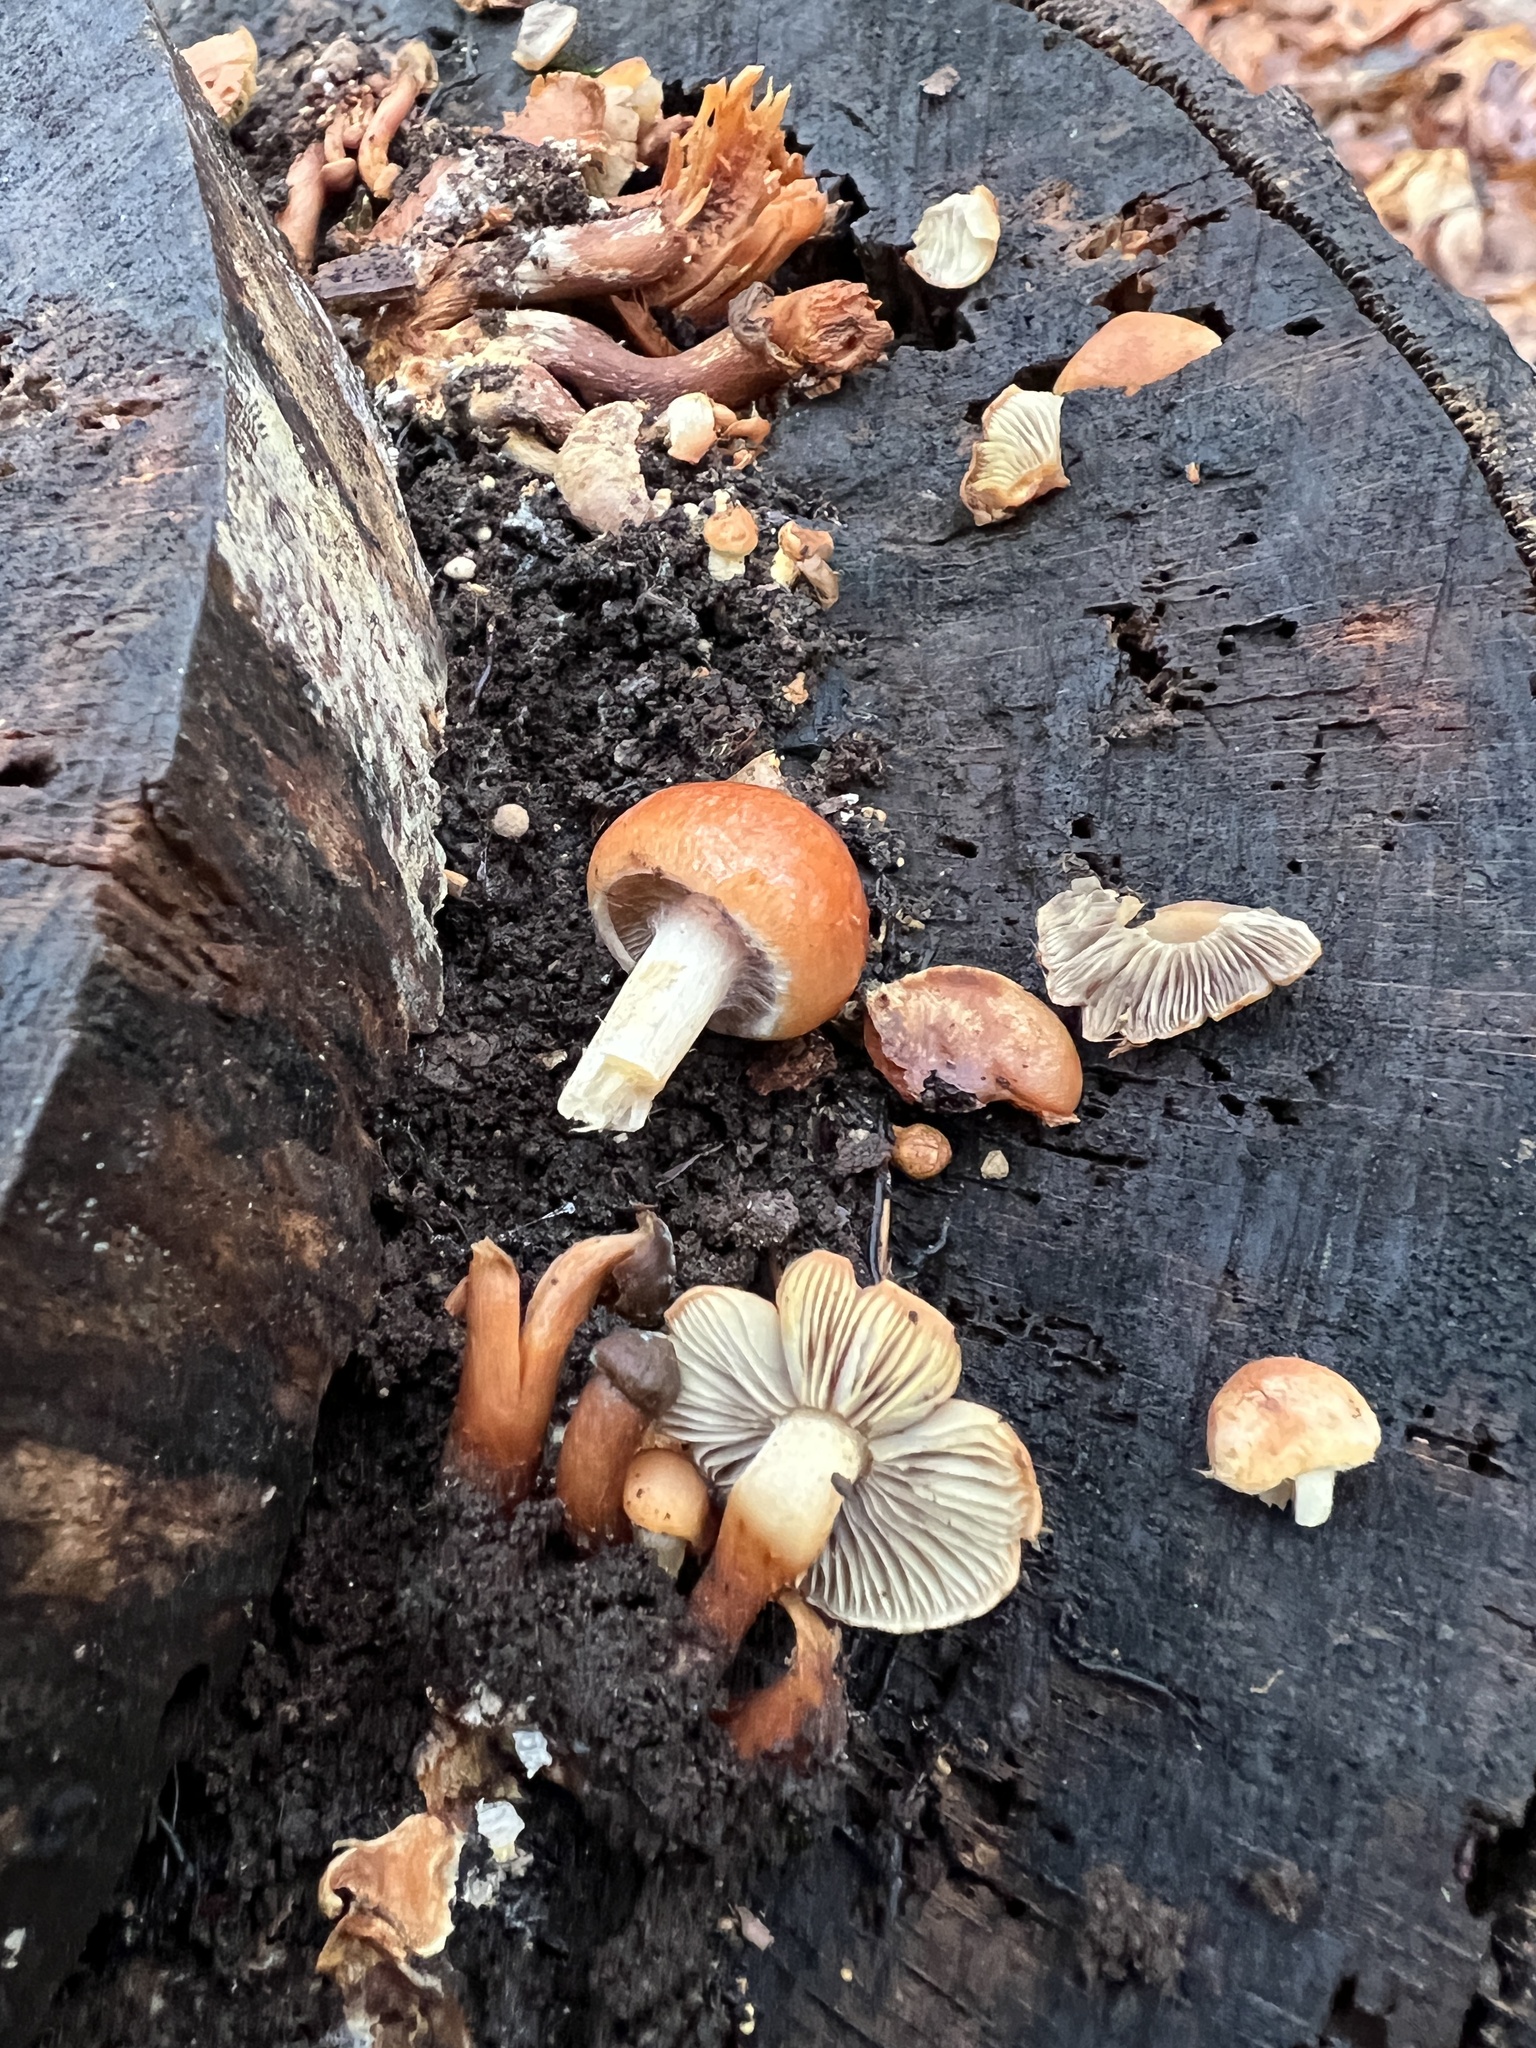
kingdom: Fungi
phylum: Basidiomycota
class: Agaricomycetes
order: Agaricales
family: Strophariaceae
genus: Hypholoma
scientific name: Hypholoma lateritium
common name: Brick caps
